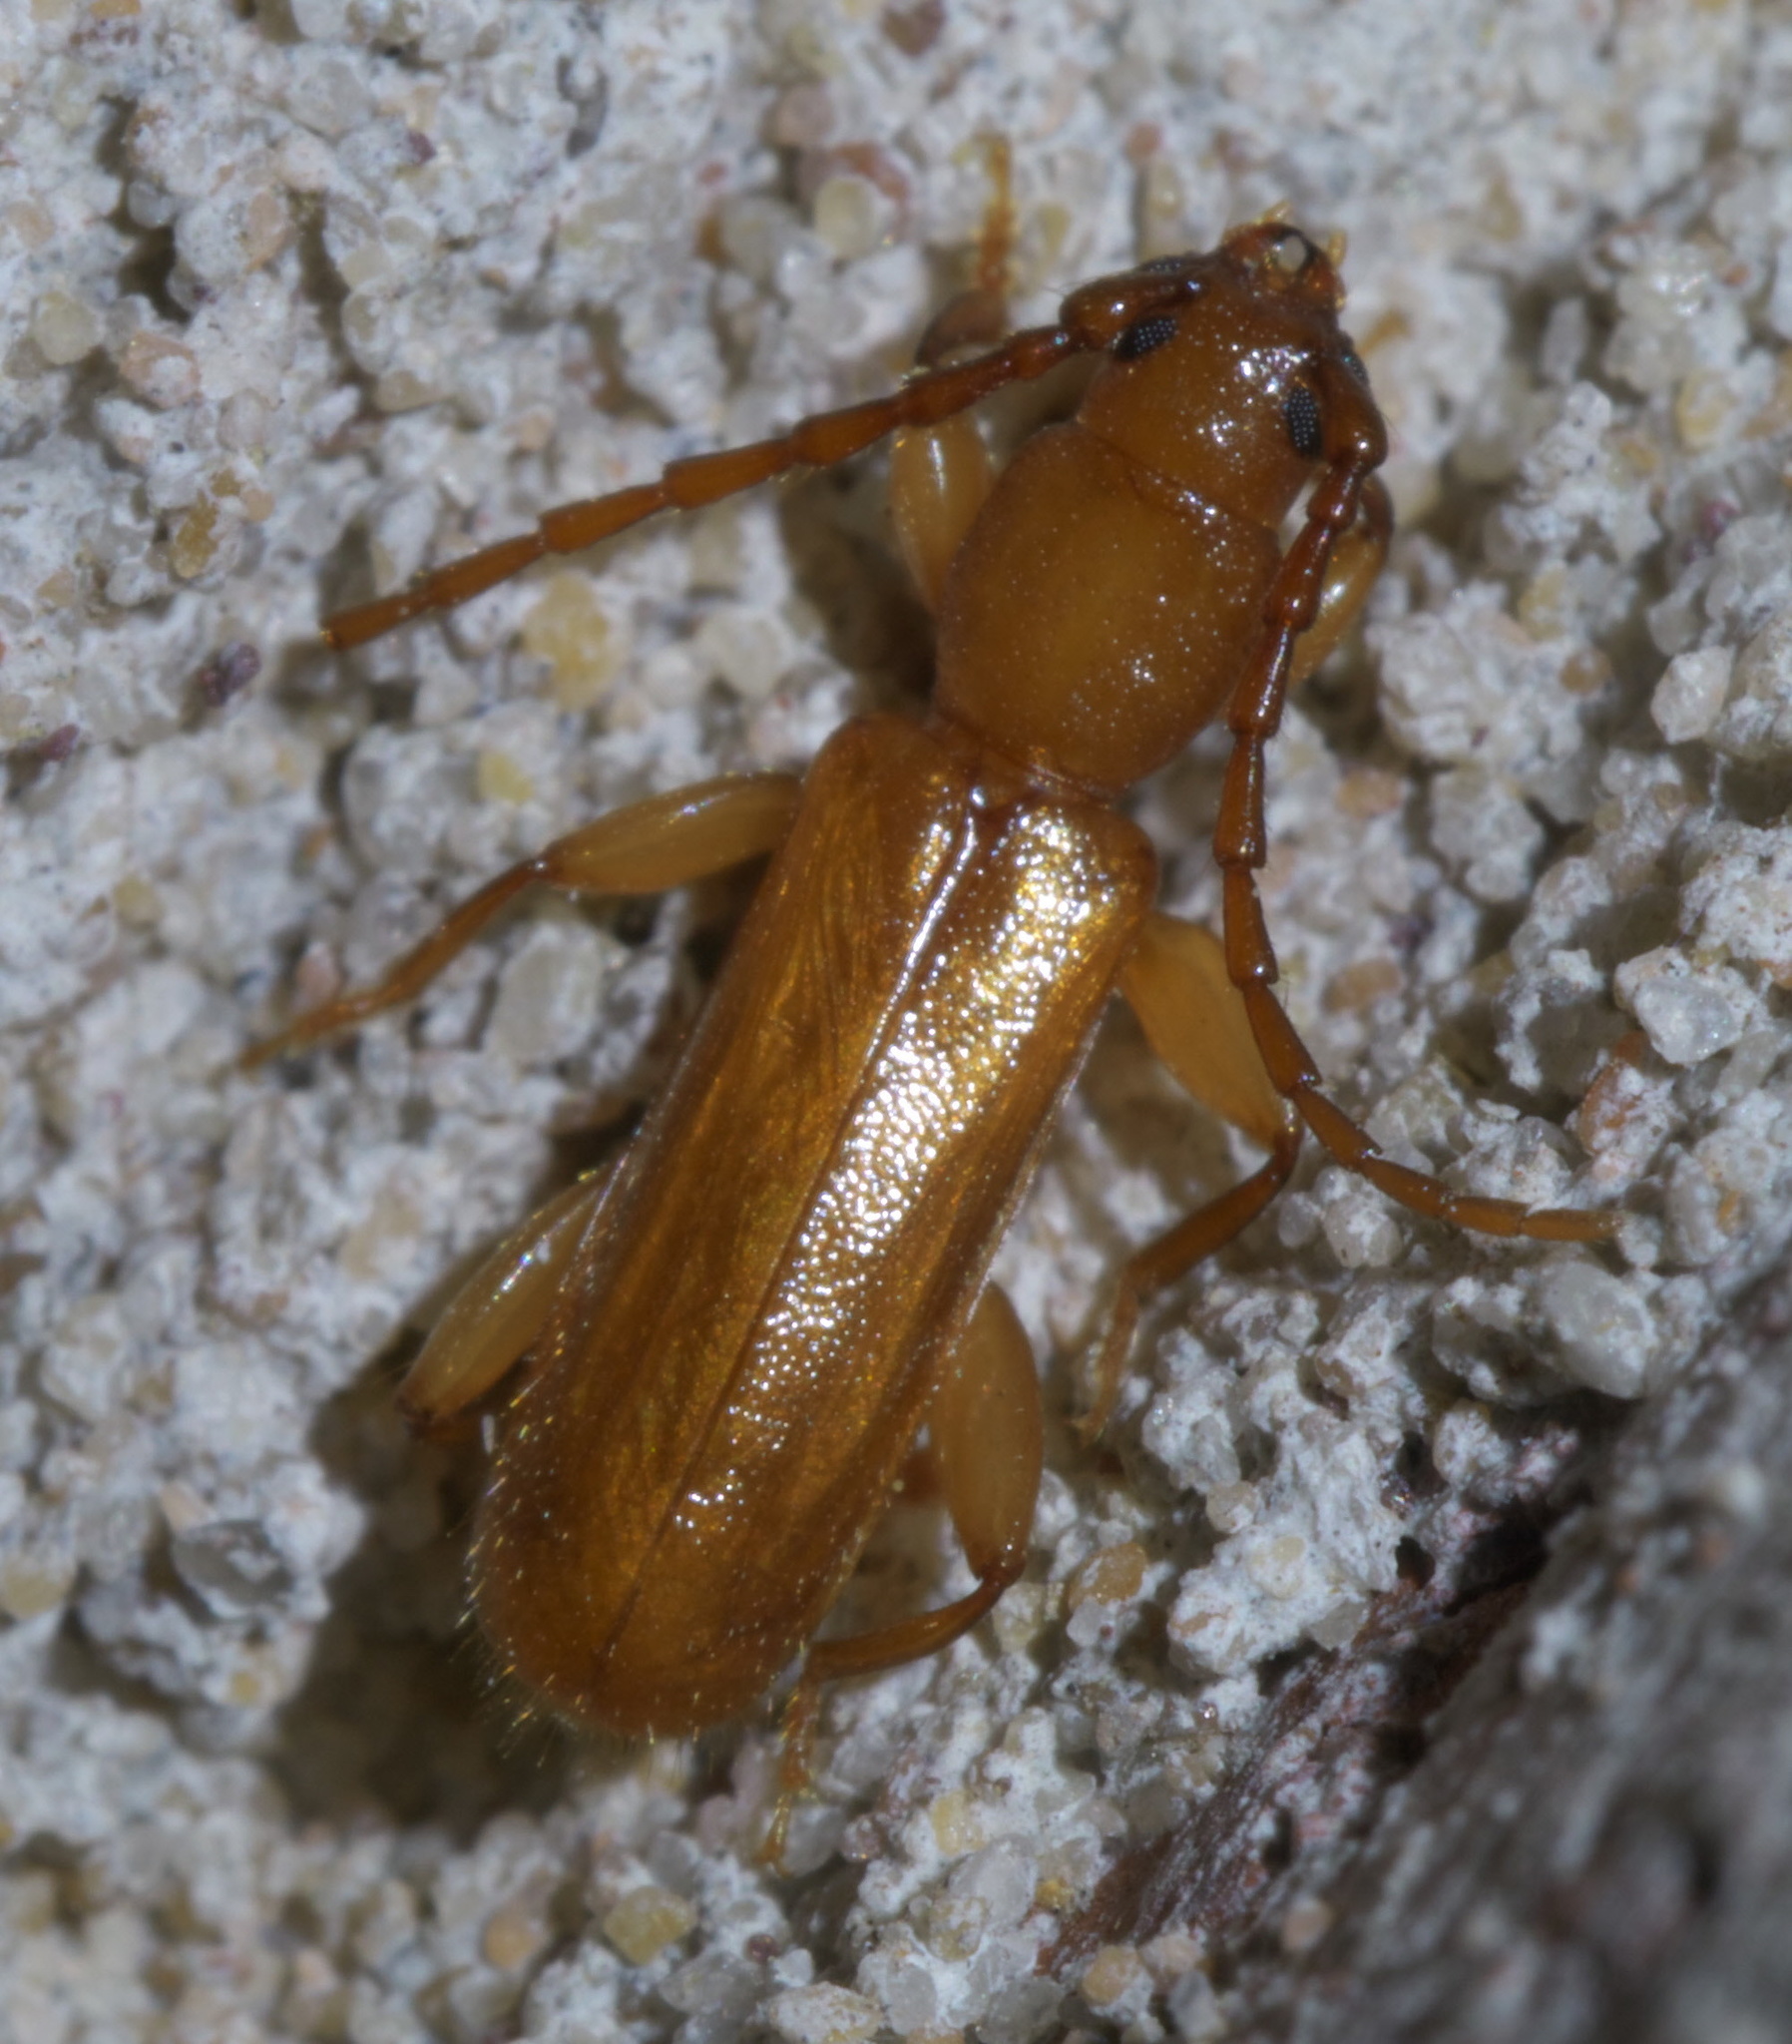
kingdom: Animalia
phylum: Arthropoda
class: Insecta
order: Coleoptera
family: Cerambycidae
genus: Smodicum
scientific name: Smodicum cucujiforme
